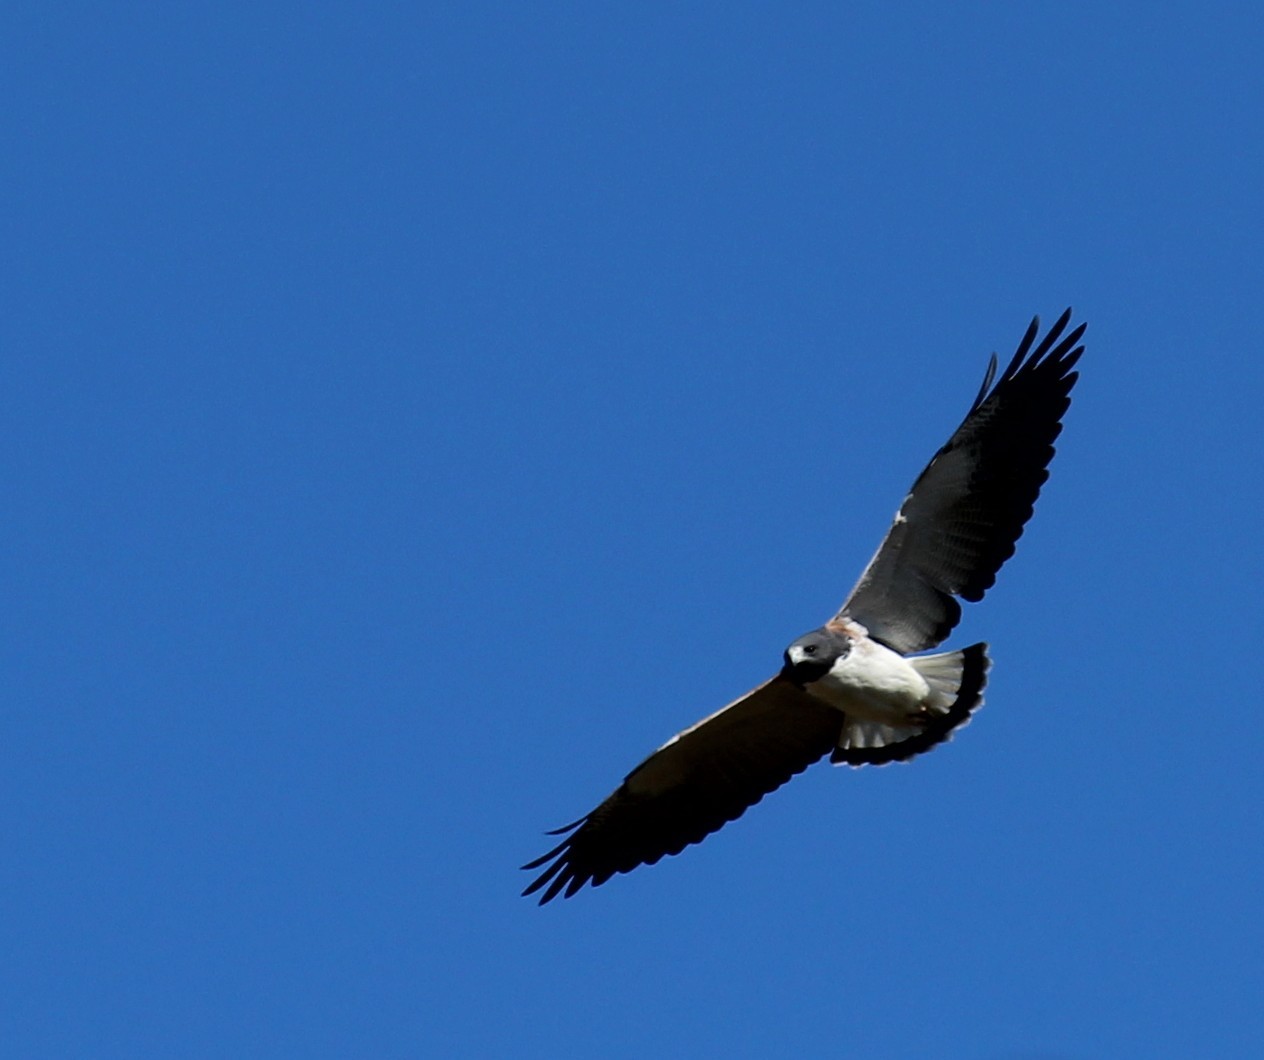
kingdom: Animalia
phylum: Chordata
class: Aves
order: Accipitriformes
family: Accipitridae
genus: Buteo
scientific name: Buteo albicaudatus
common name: White-tailed hawk
